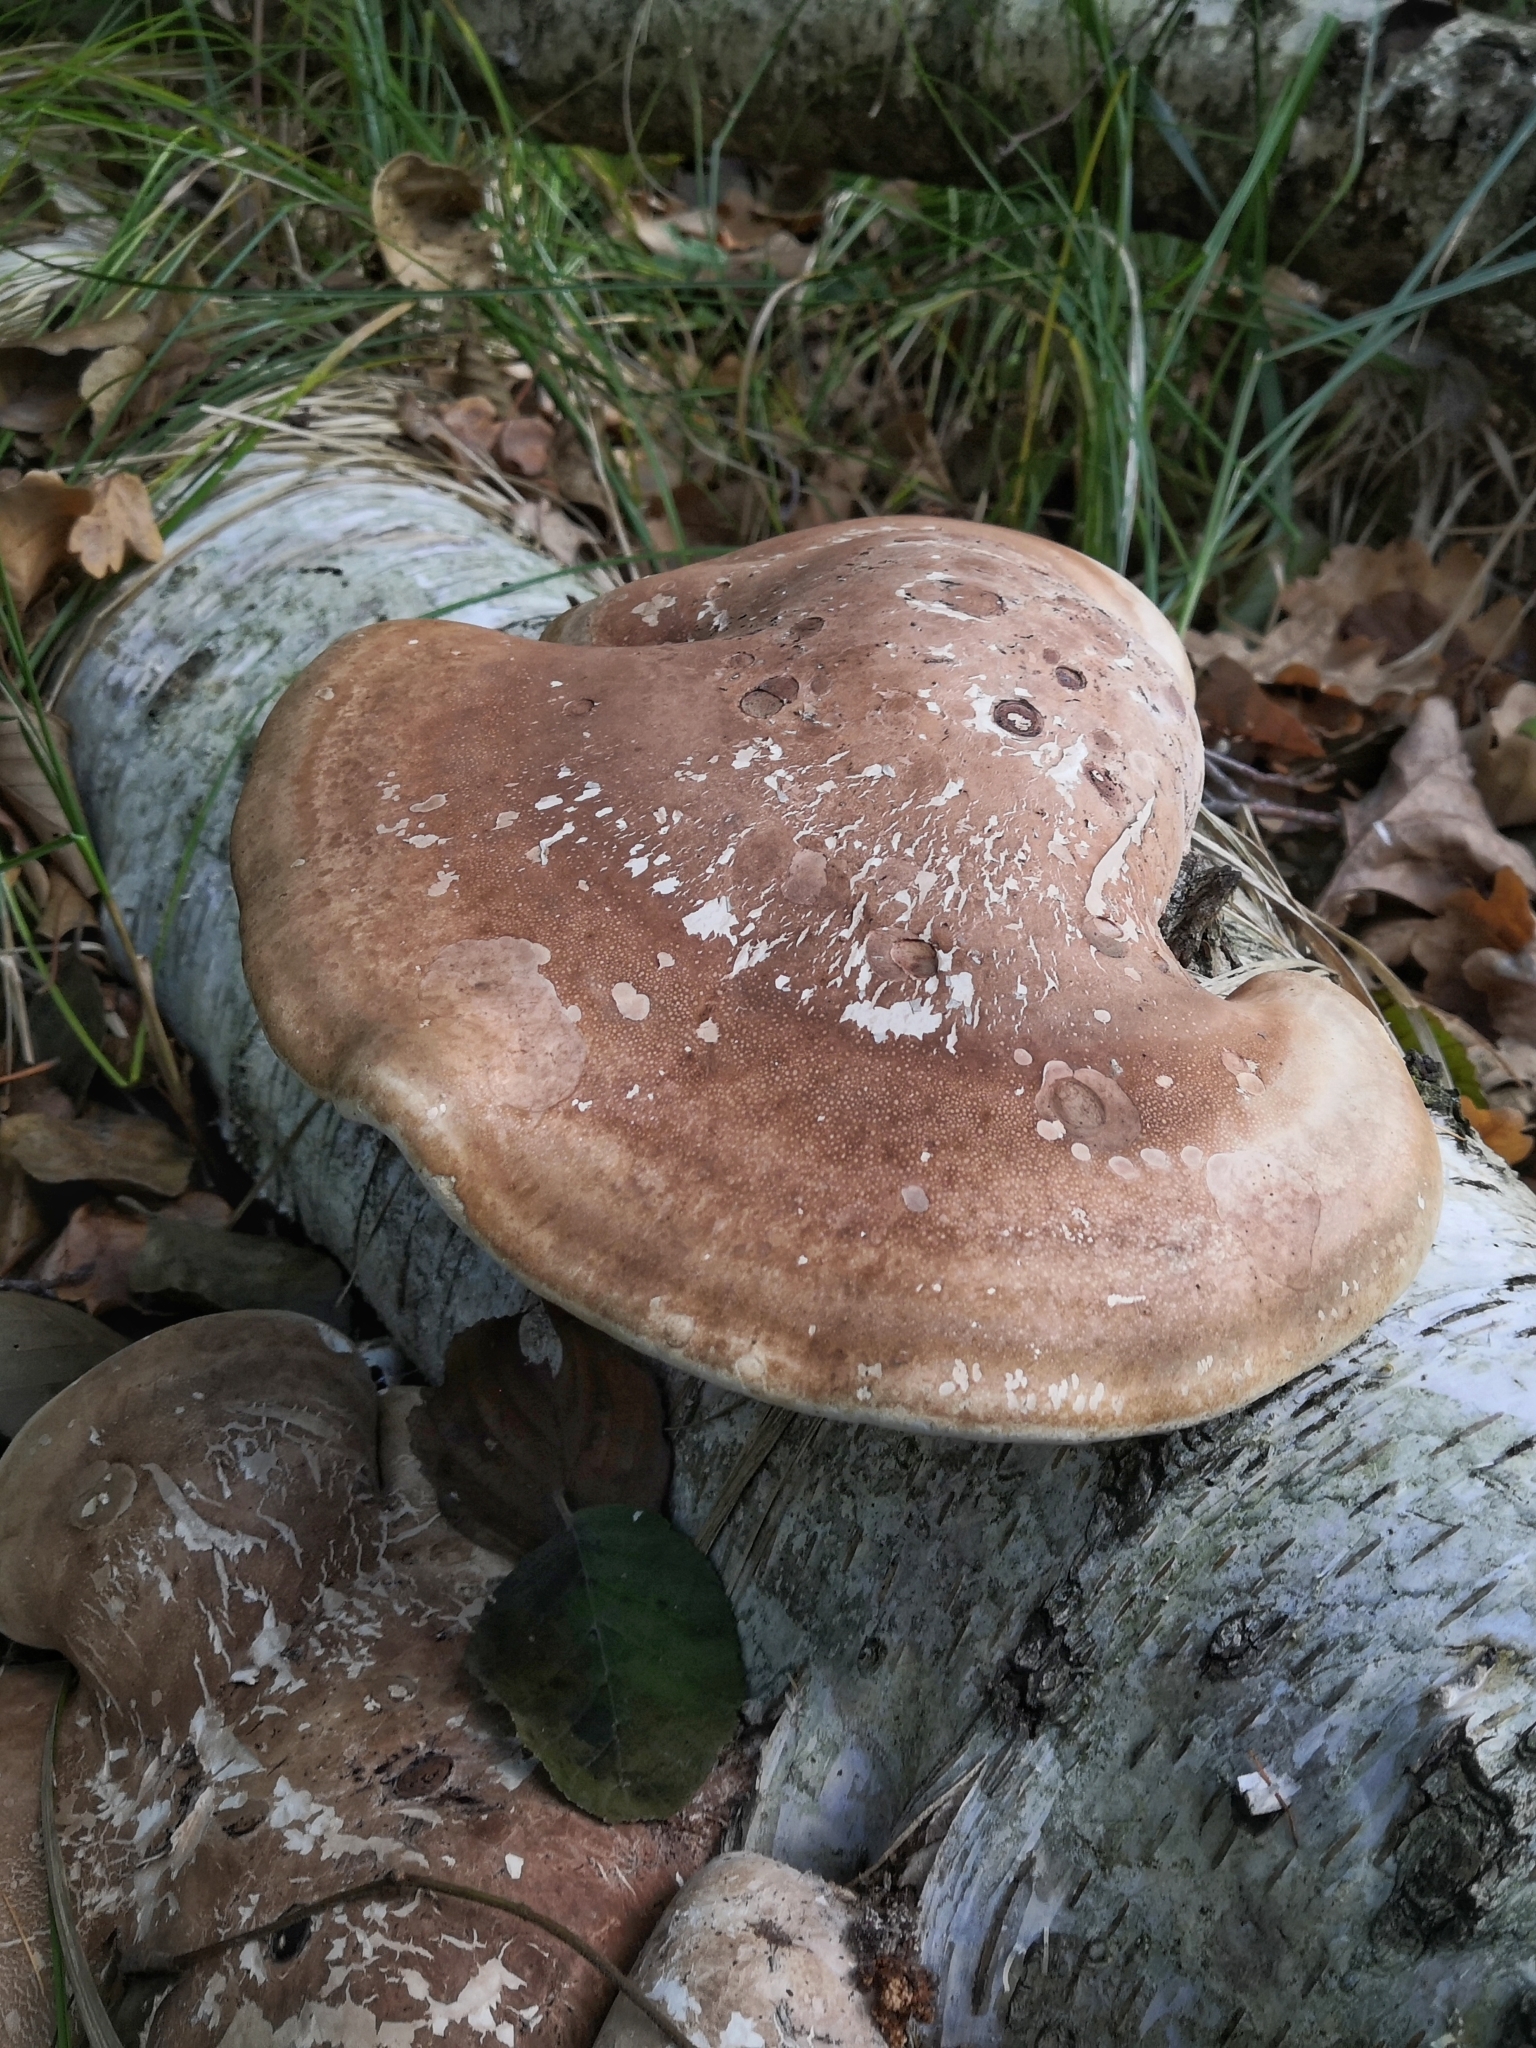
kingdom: Fungi
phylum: Basidiomycota
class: Agaricomycetes
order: Polyporales
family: Fomitopsidaceae
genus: Fomitopsis
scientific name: Fomitopsis betulina
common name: Birch polypore
